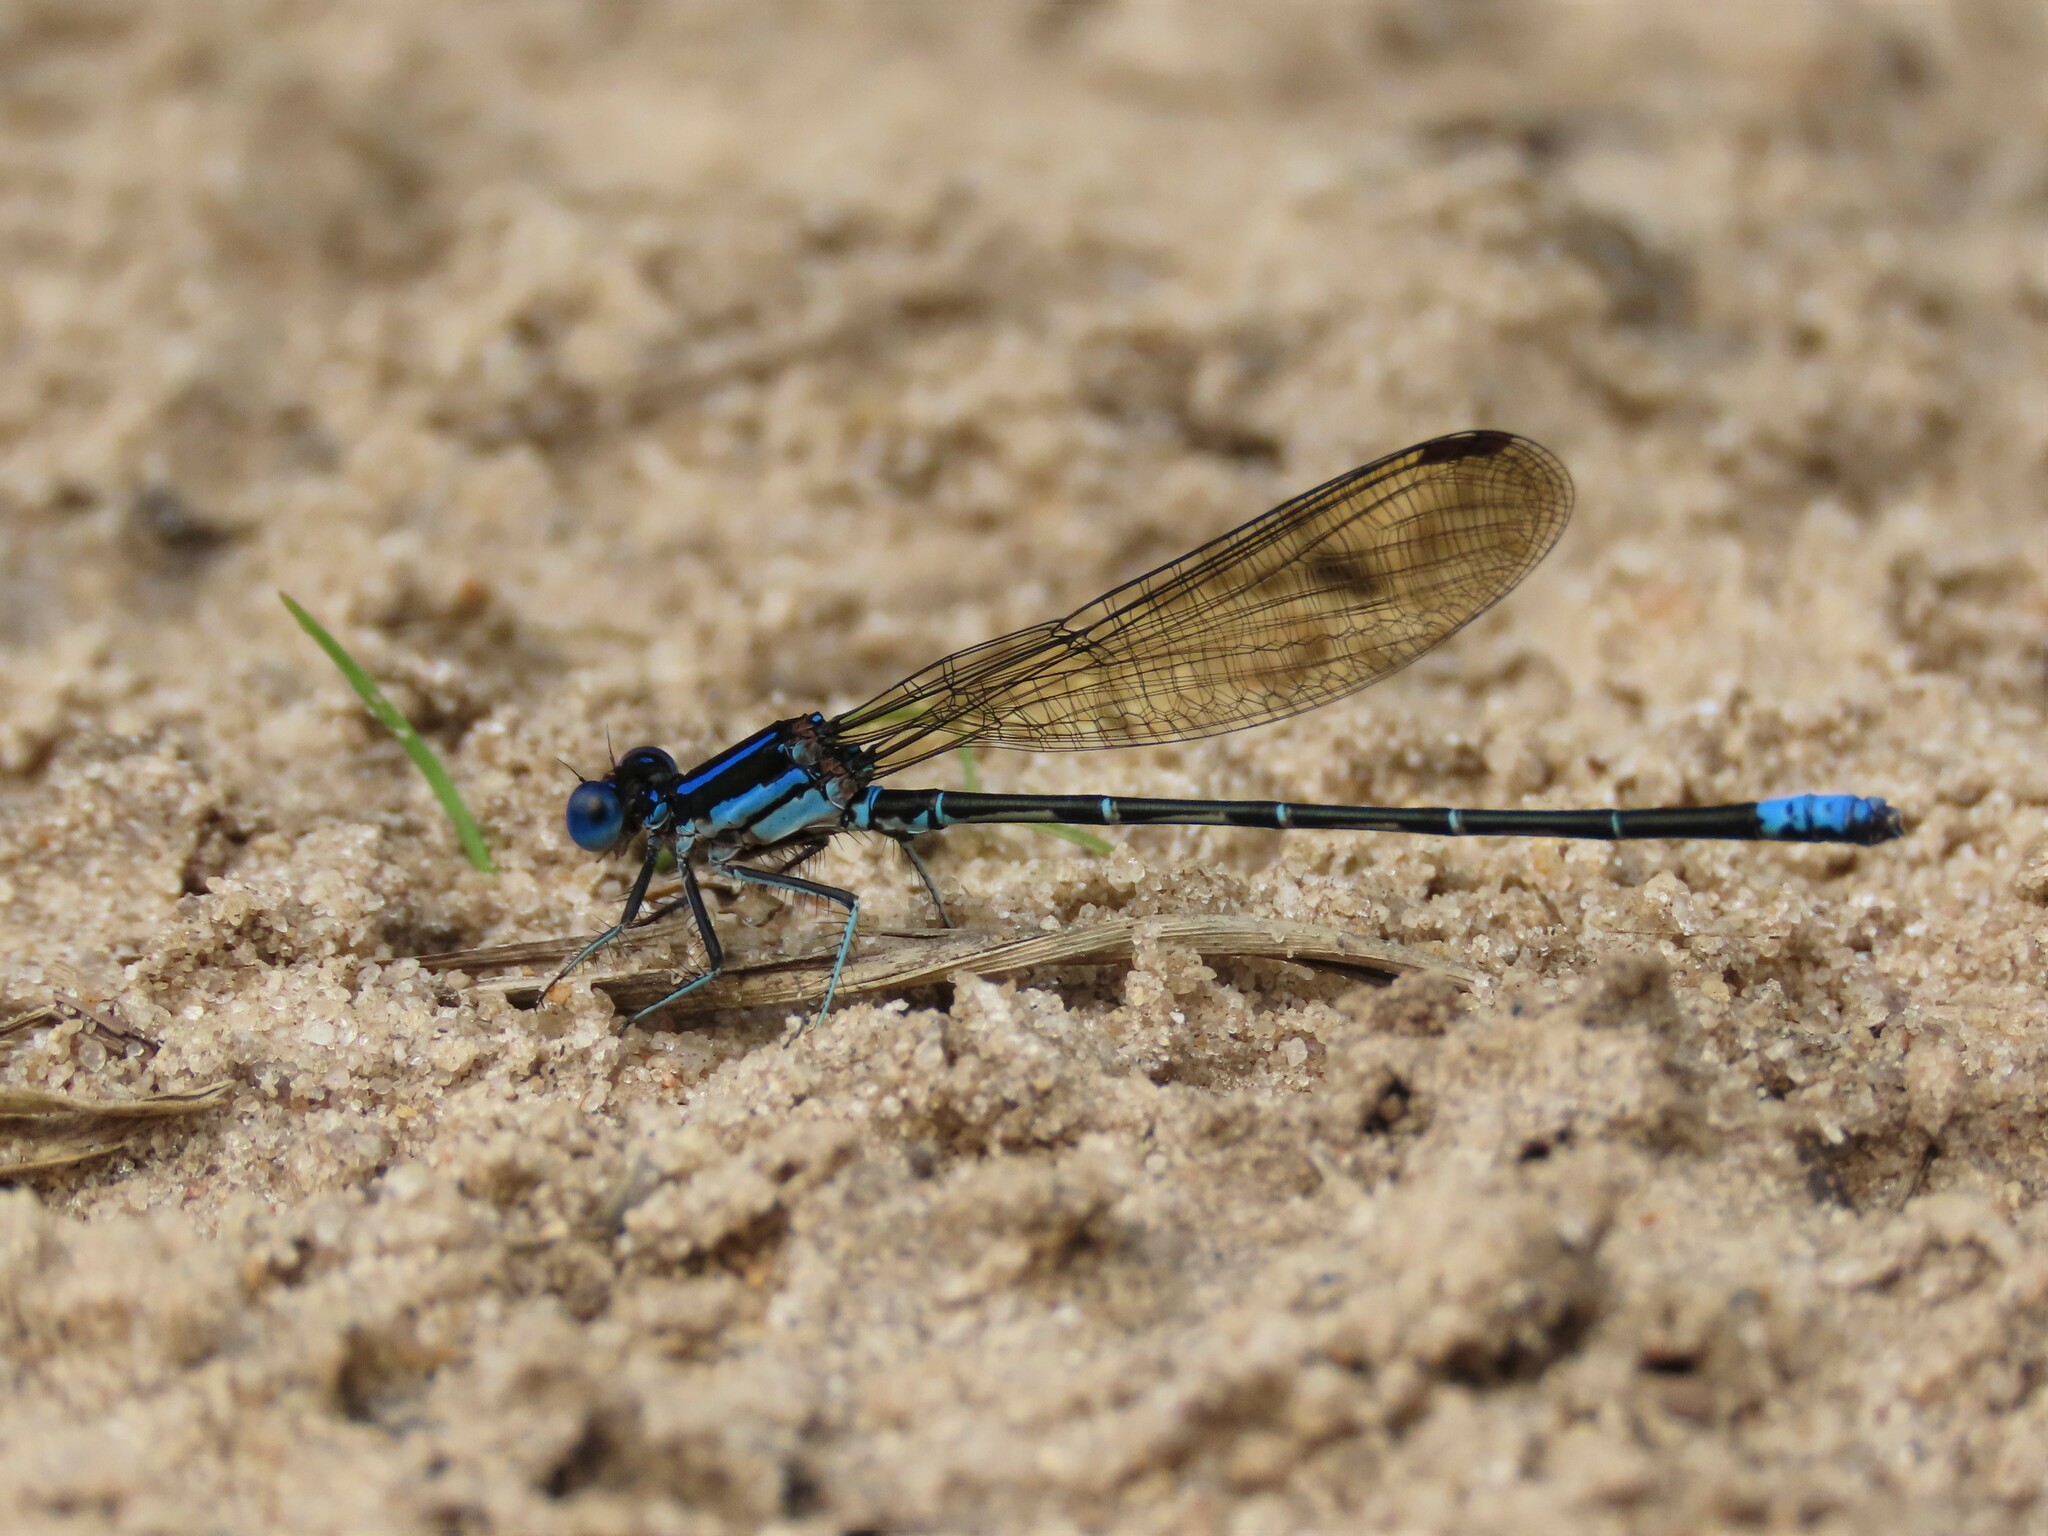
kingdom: Animalia
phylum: Arthropoda
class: Insecta
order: Odonata
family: Coenagrionidae
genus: Argia
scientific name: Argia sedula
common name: Blue-ringed dancer
